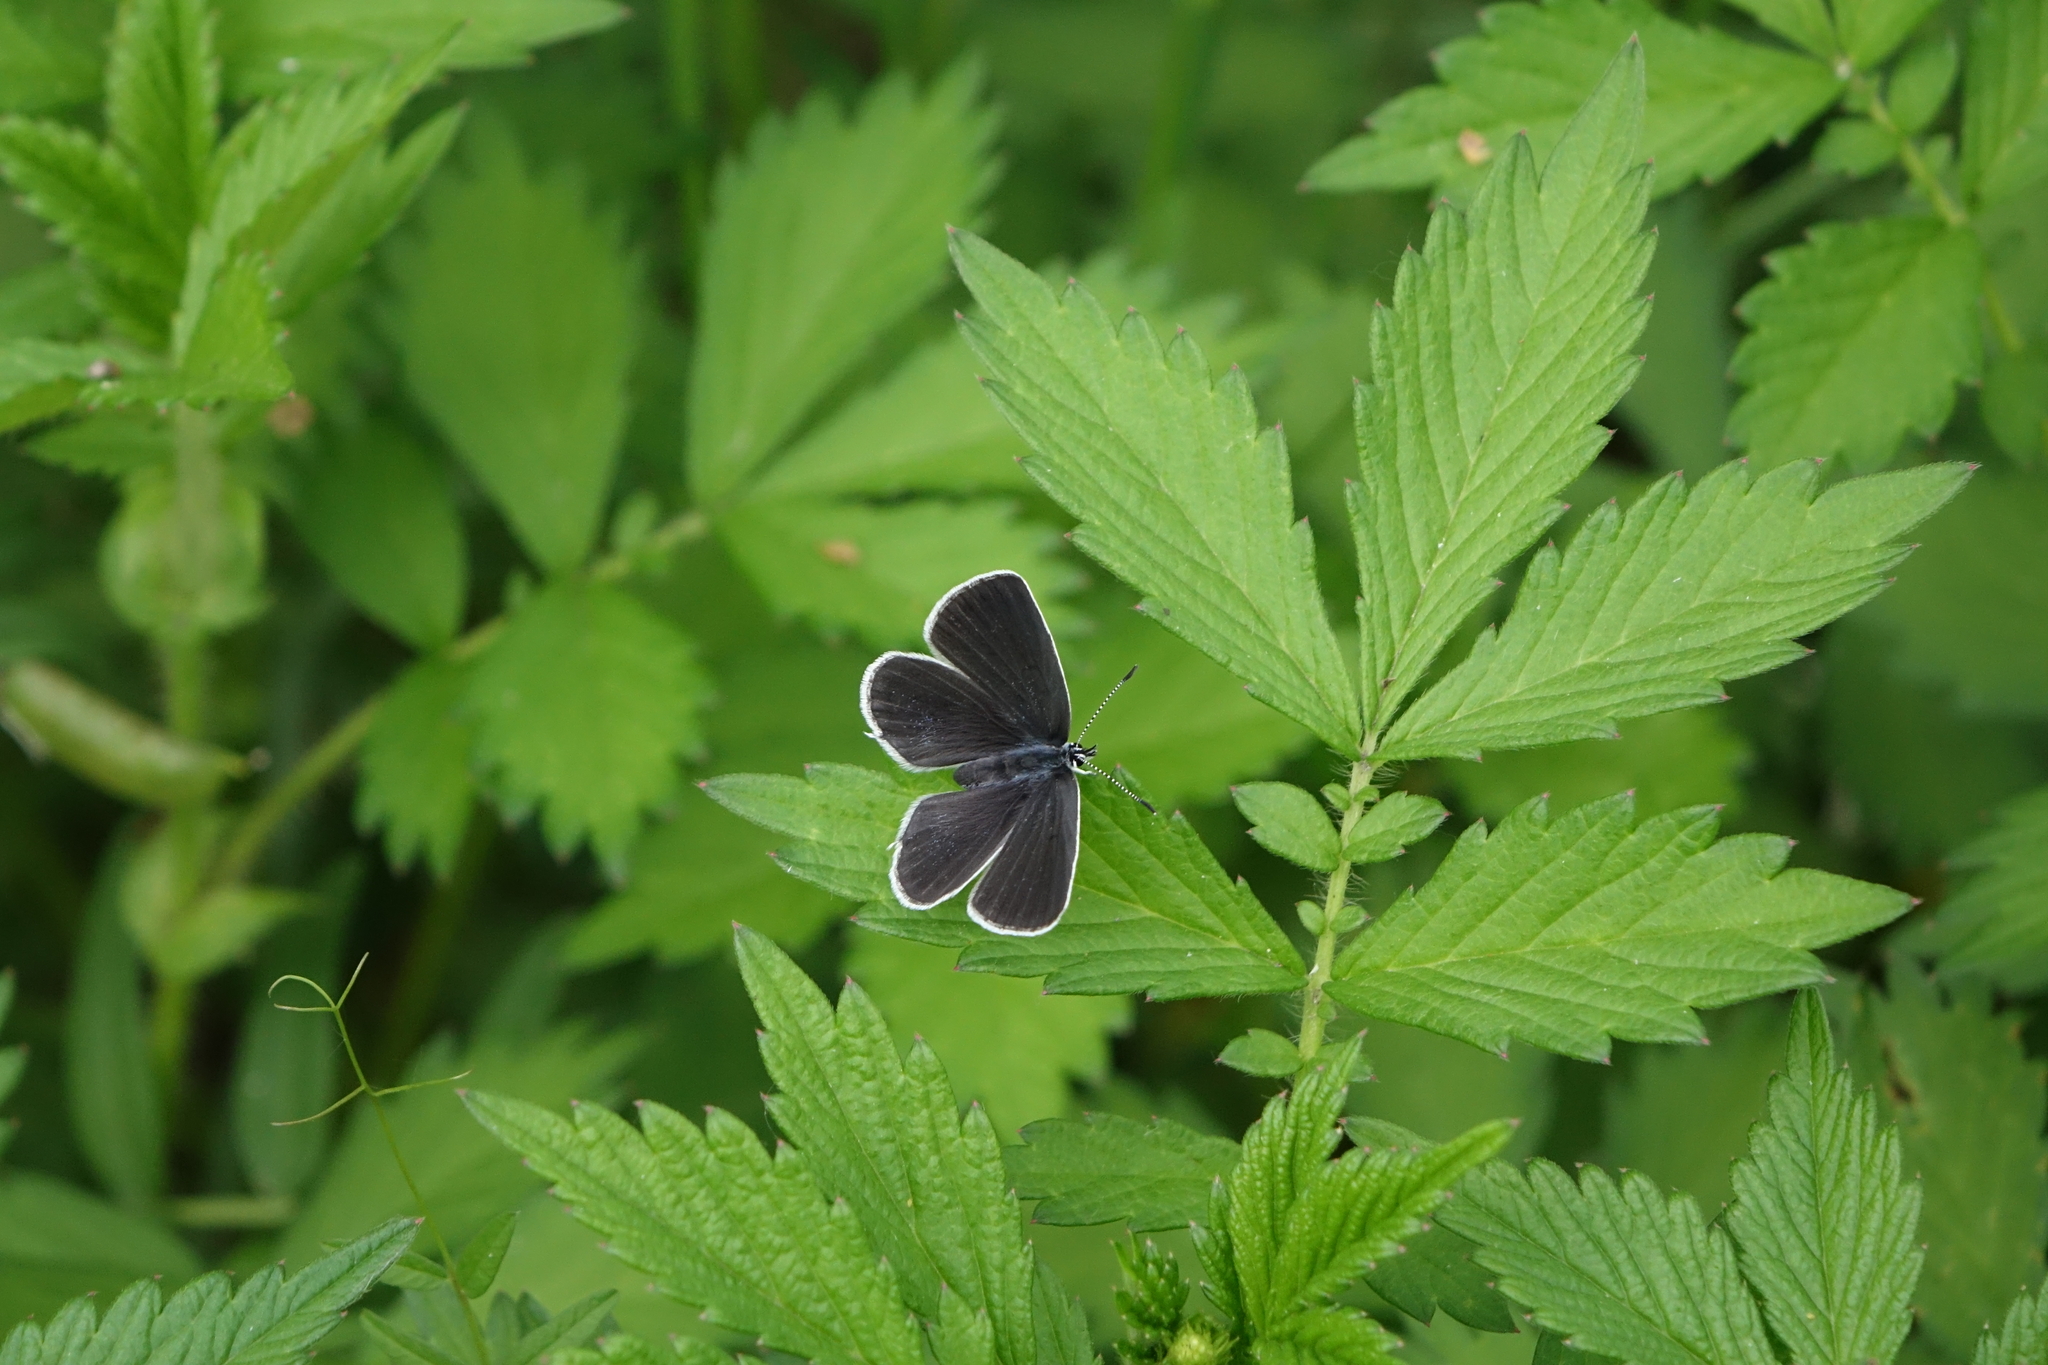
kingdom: Plantae
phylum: Tracheophyta
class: Magnoliopsida
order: Rosales
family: Rosaceae
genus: Agrimonia
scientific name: Agrimonia pilosa
